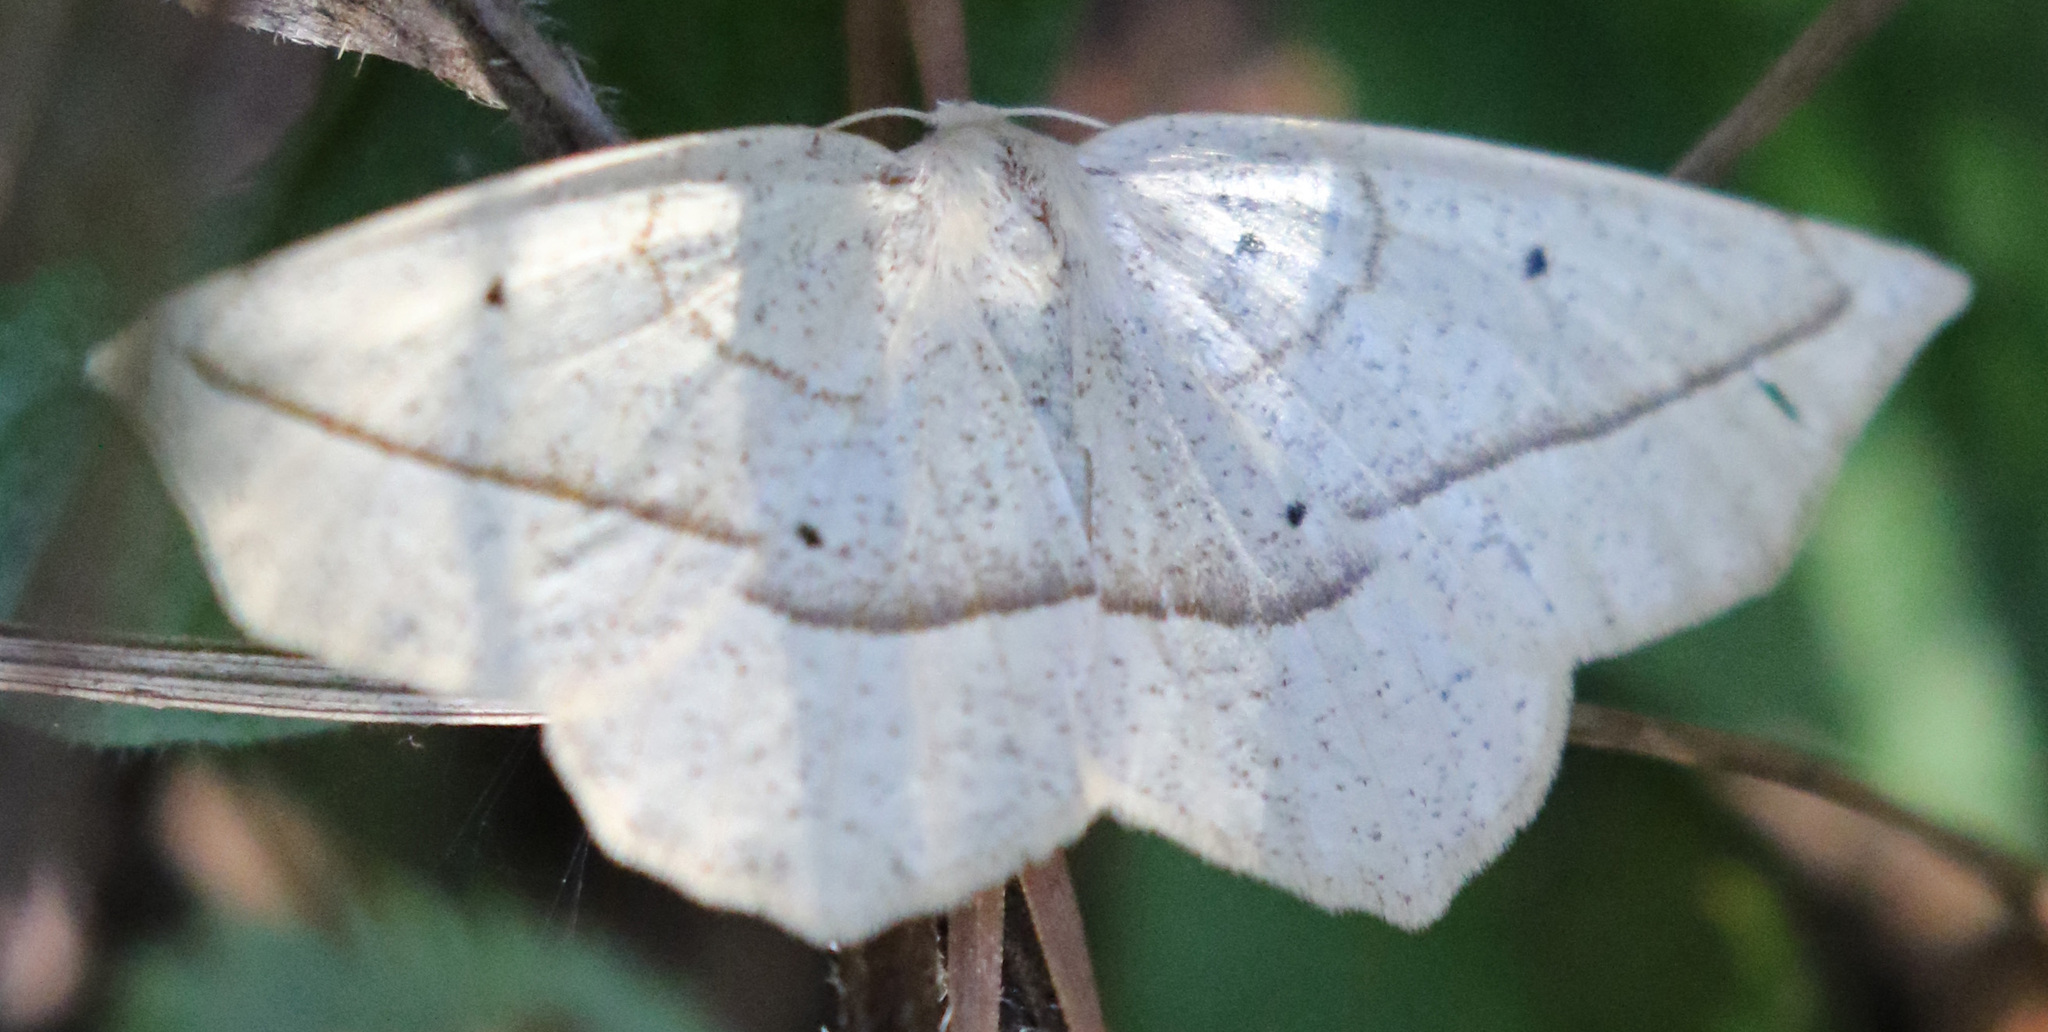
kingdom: Animalia
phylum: Arthropoda
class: Insecta
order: Lepidoptera
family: Geometridae
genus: Eusarca
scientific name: Eusarca confusaria
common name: Confused eusarca
